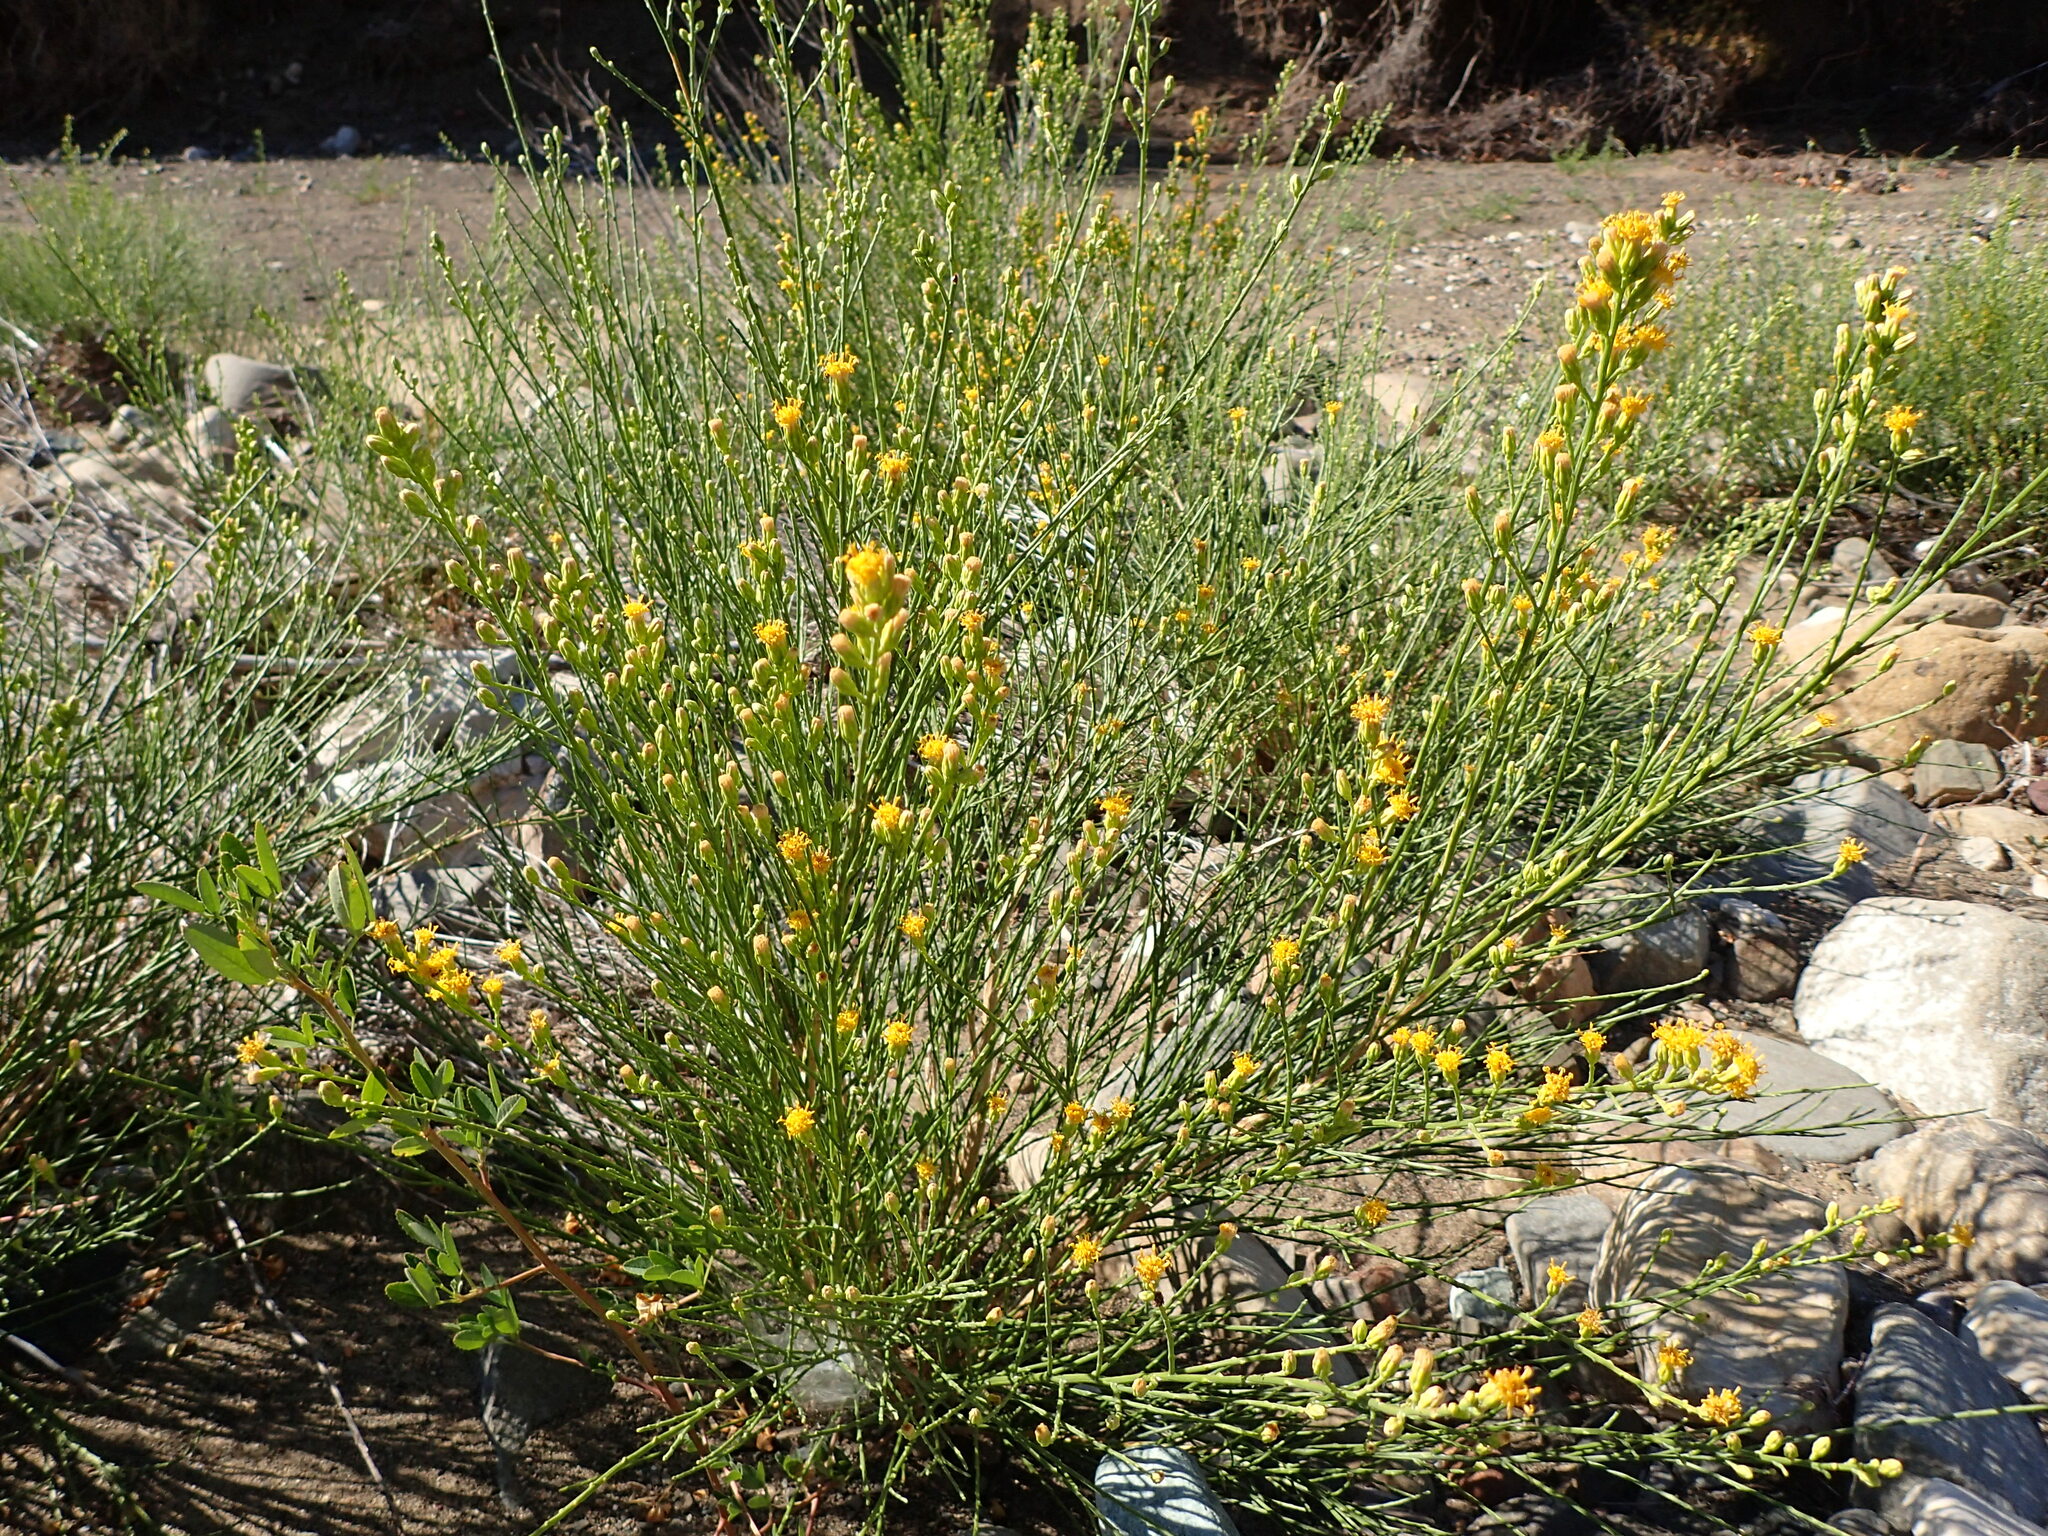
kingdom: Plantae
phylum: Tracheophyta
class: Magnoliopsida
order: Asterales
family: Asteraceae
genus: Lepidospartum
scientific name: Lepidospartum squamatum
